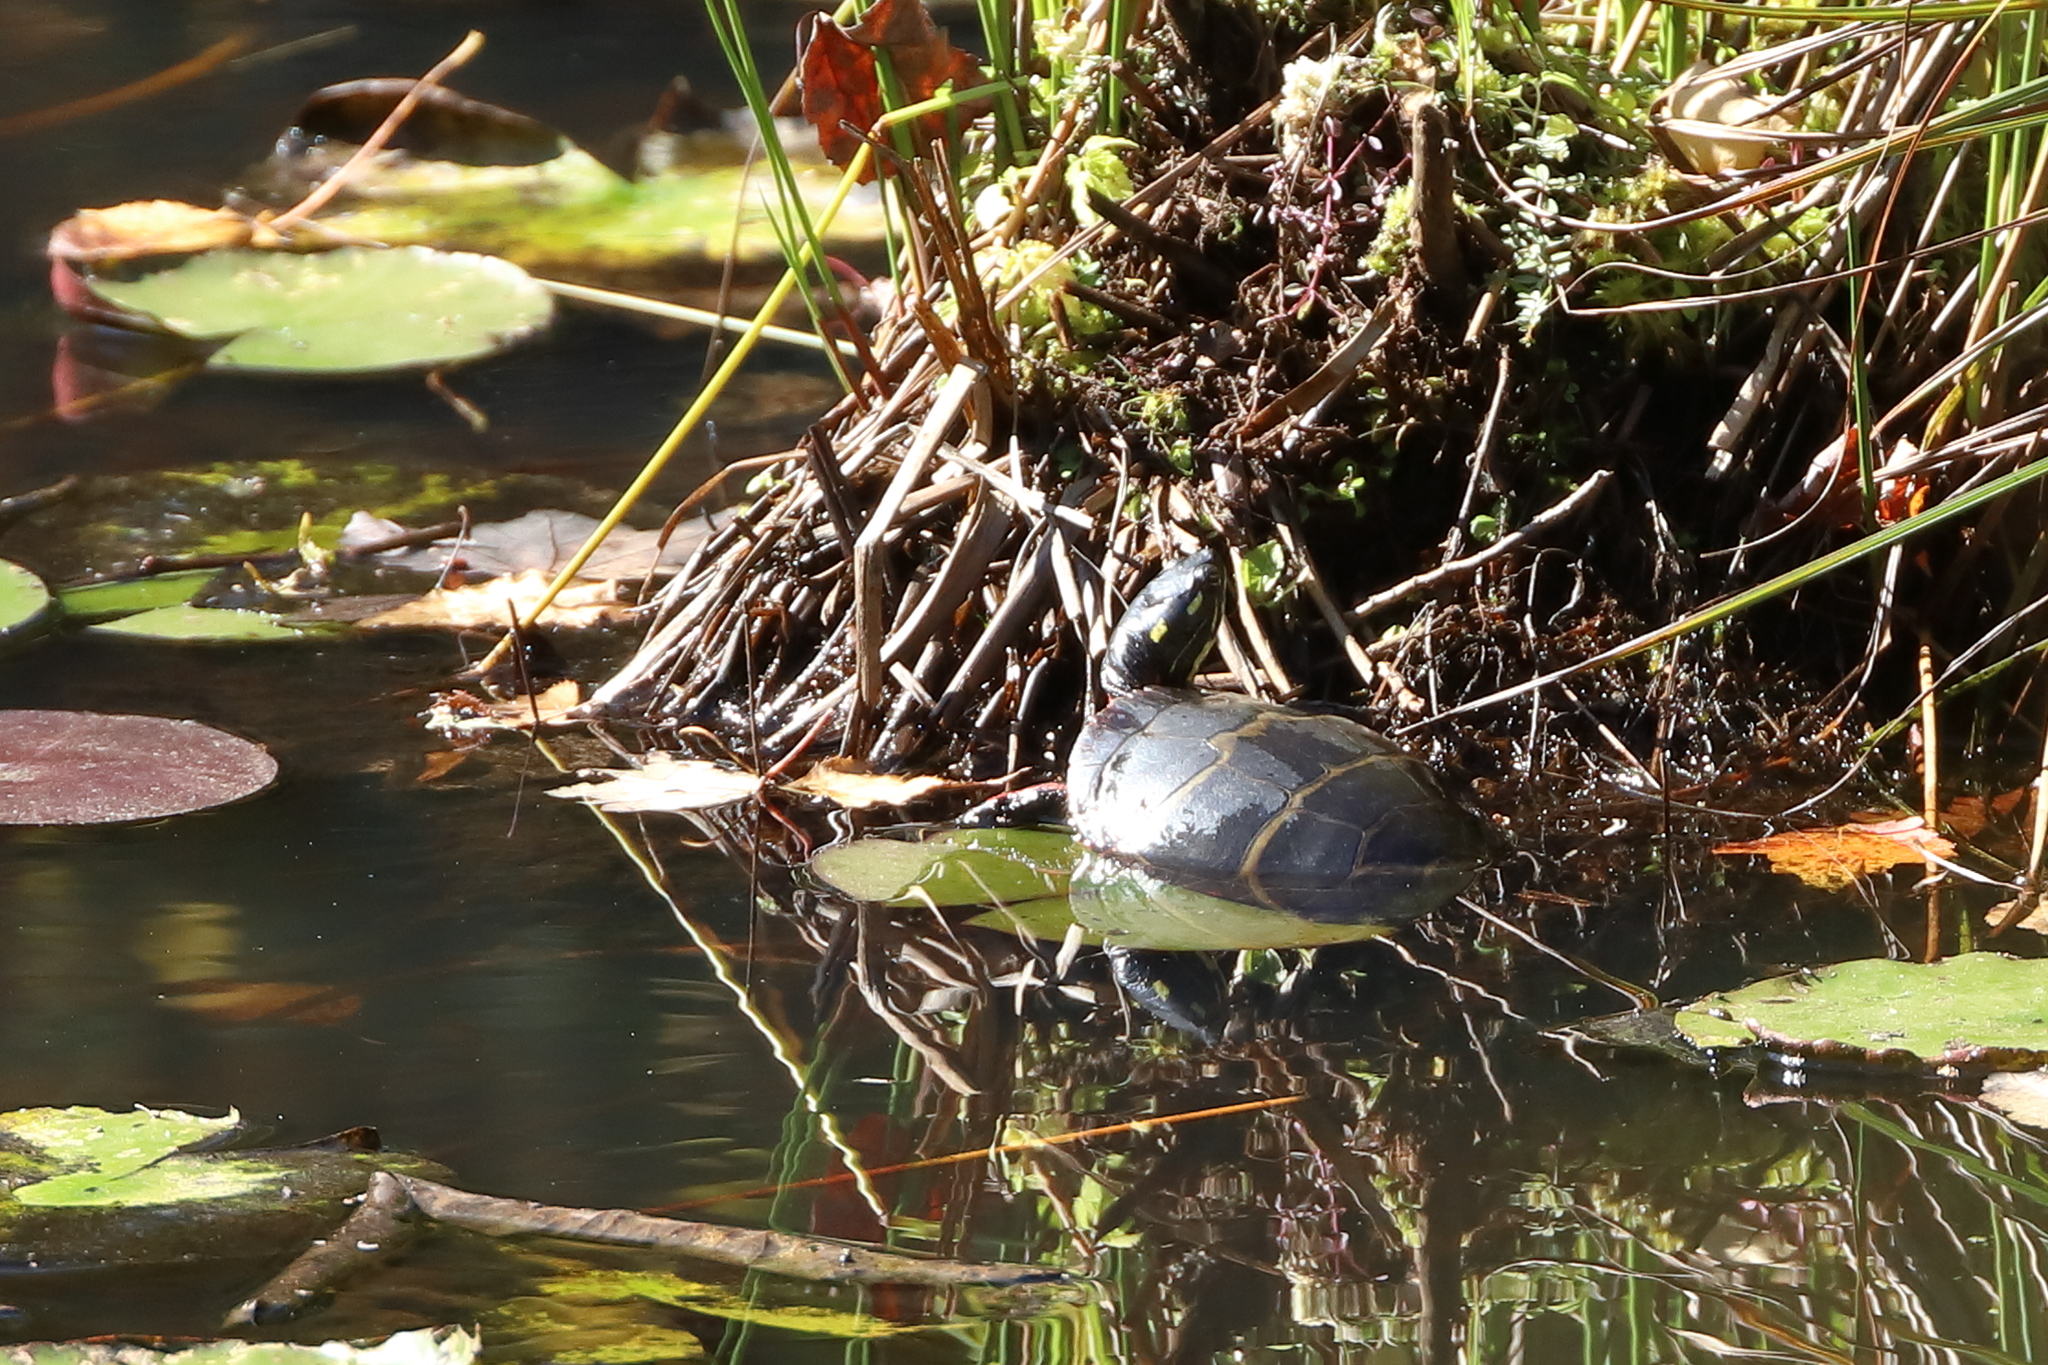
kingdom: Animalia
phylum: Chordata
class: Testudines
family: Emydidae
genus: Chrysemys
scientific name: Chrysemys picta
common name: Painted turtle
